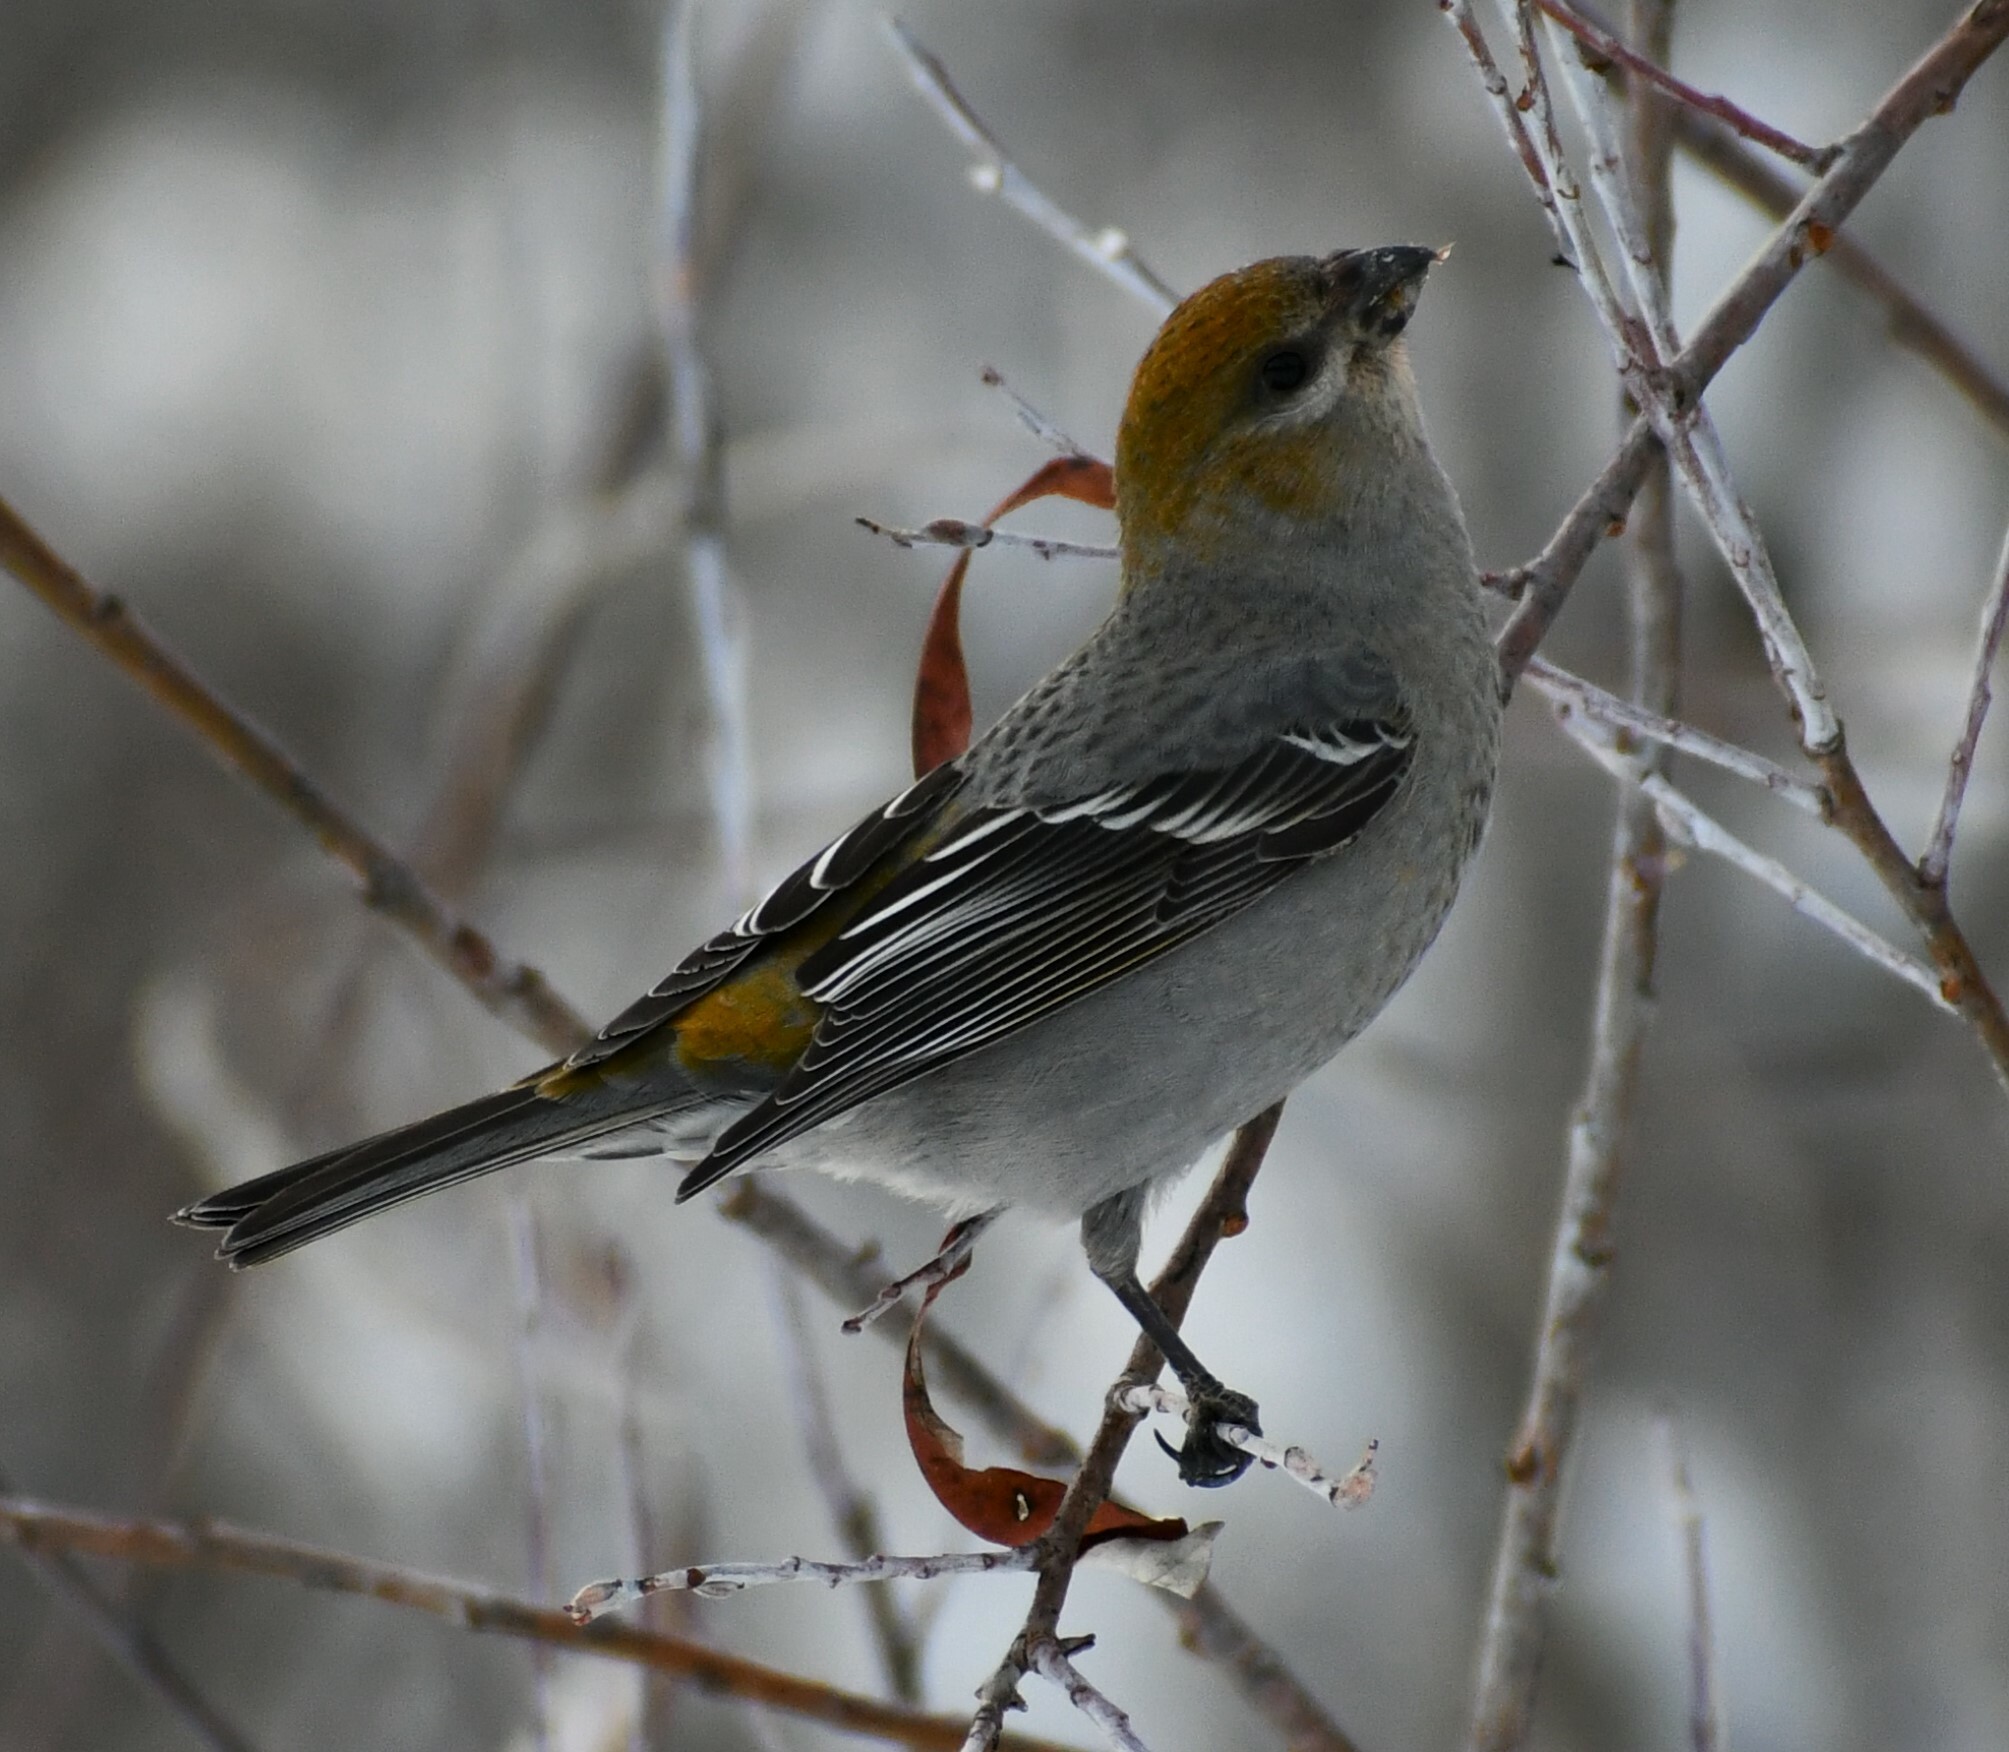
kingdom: Animalia
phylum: Chordata
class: Aves
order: Passeriformes
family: Fringillidae
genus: Pinicola
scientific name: Pinicola enucleator
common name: Pine grosbeak
